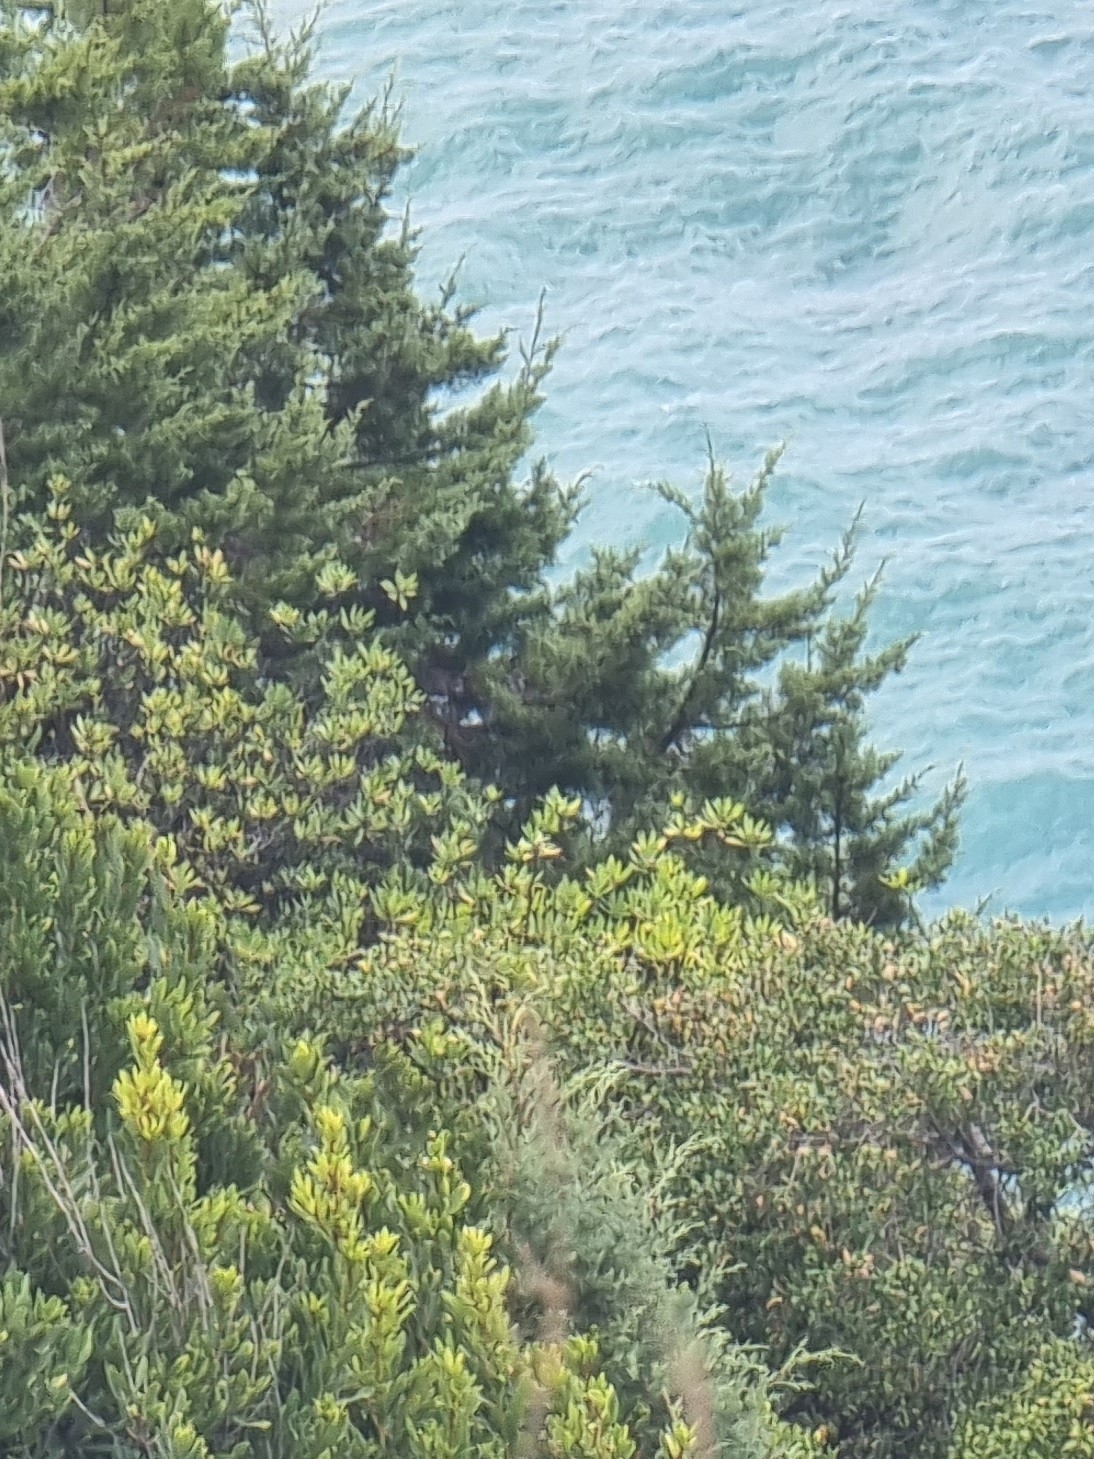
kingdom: Plantae
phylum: Tracheophyta
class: Pinopsida
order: Pinales
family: Cupressaceae
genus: Juniperus
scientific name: Juniperus canariensis
